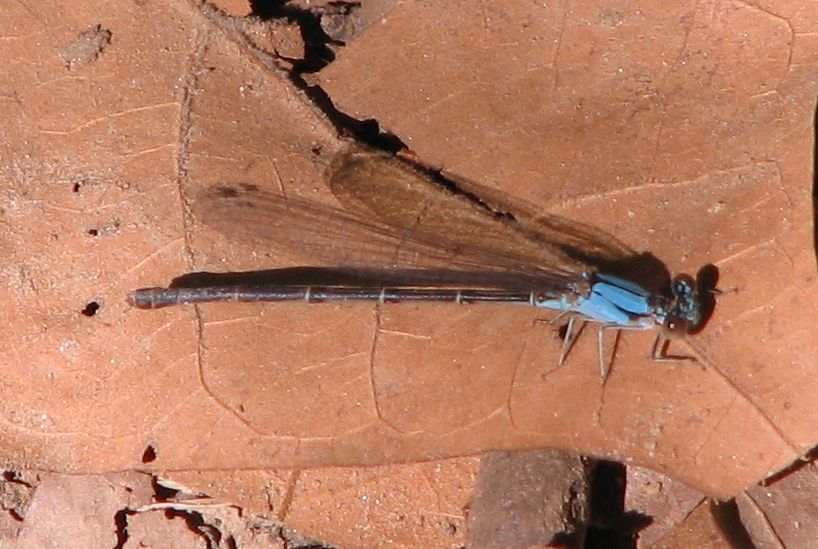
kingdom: Animalia
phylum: Arthropoda
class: Insecta
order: Odonata
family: Coenagrionidae
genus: Argia
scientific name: Argia apicalis
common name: Blue-fronted dancer
